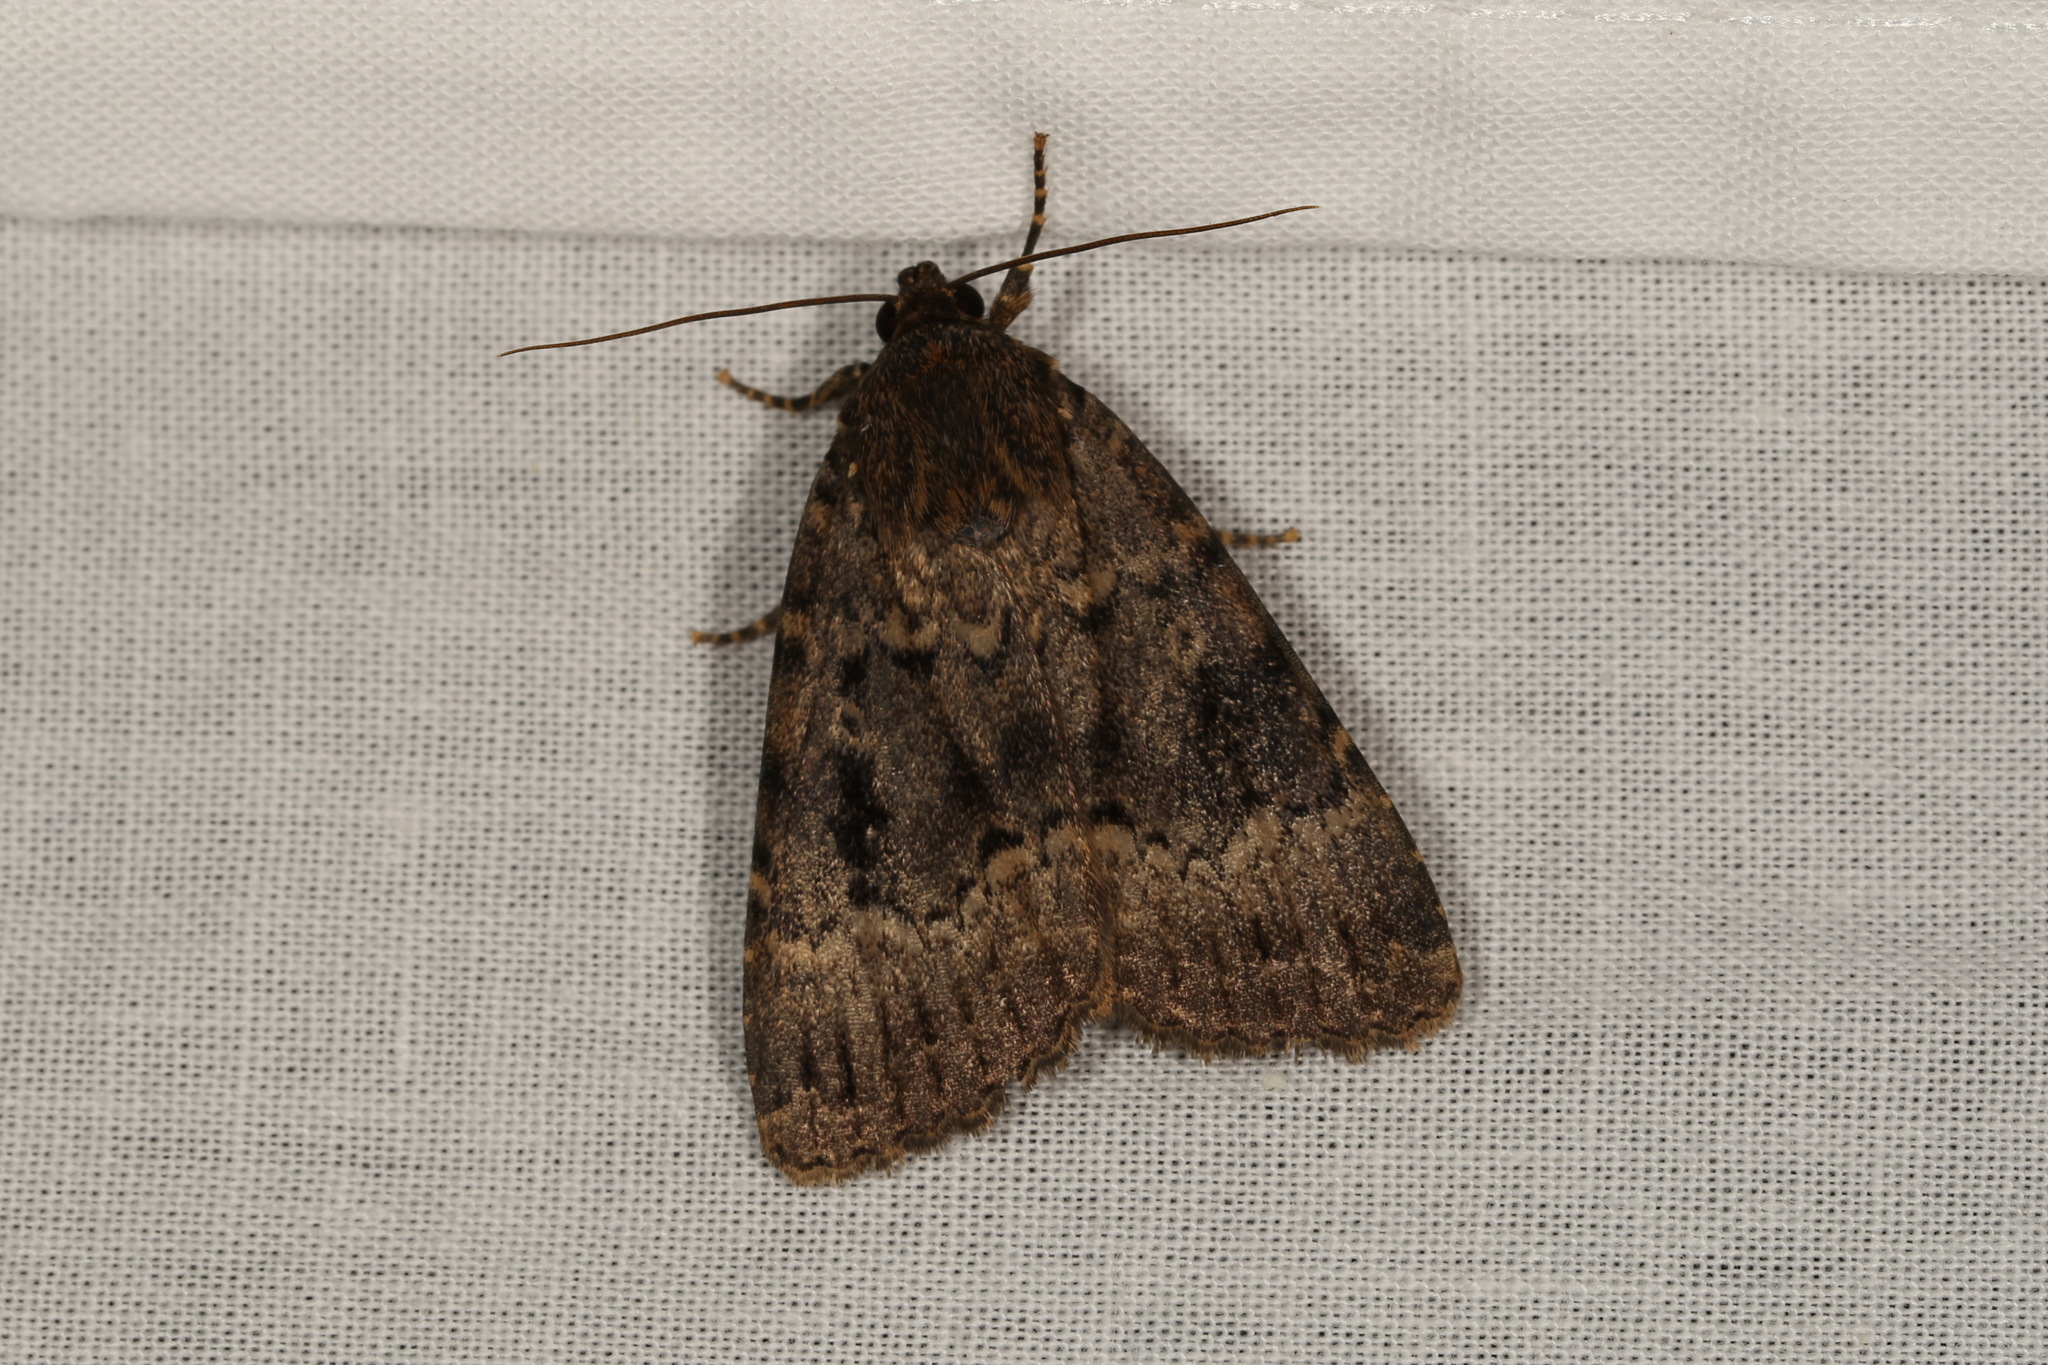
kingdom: Animalia
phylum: Arthropoda
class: Insecta
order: Lepidoptera
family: Noctuidae
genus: Amphipyra
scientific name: Amphipyra berbera
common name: Svensson's copper underwing
